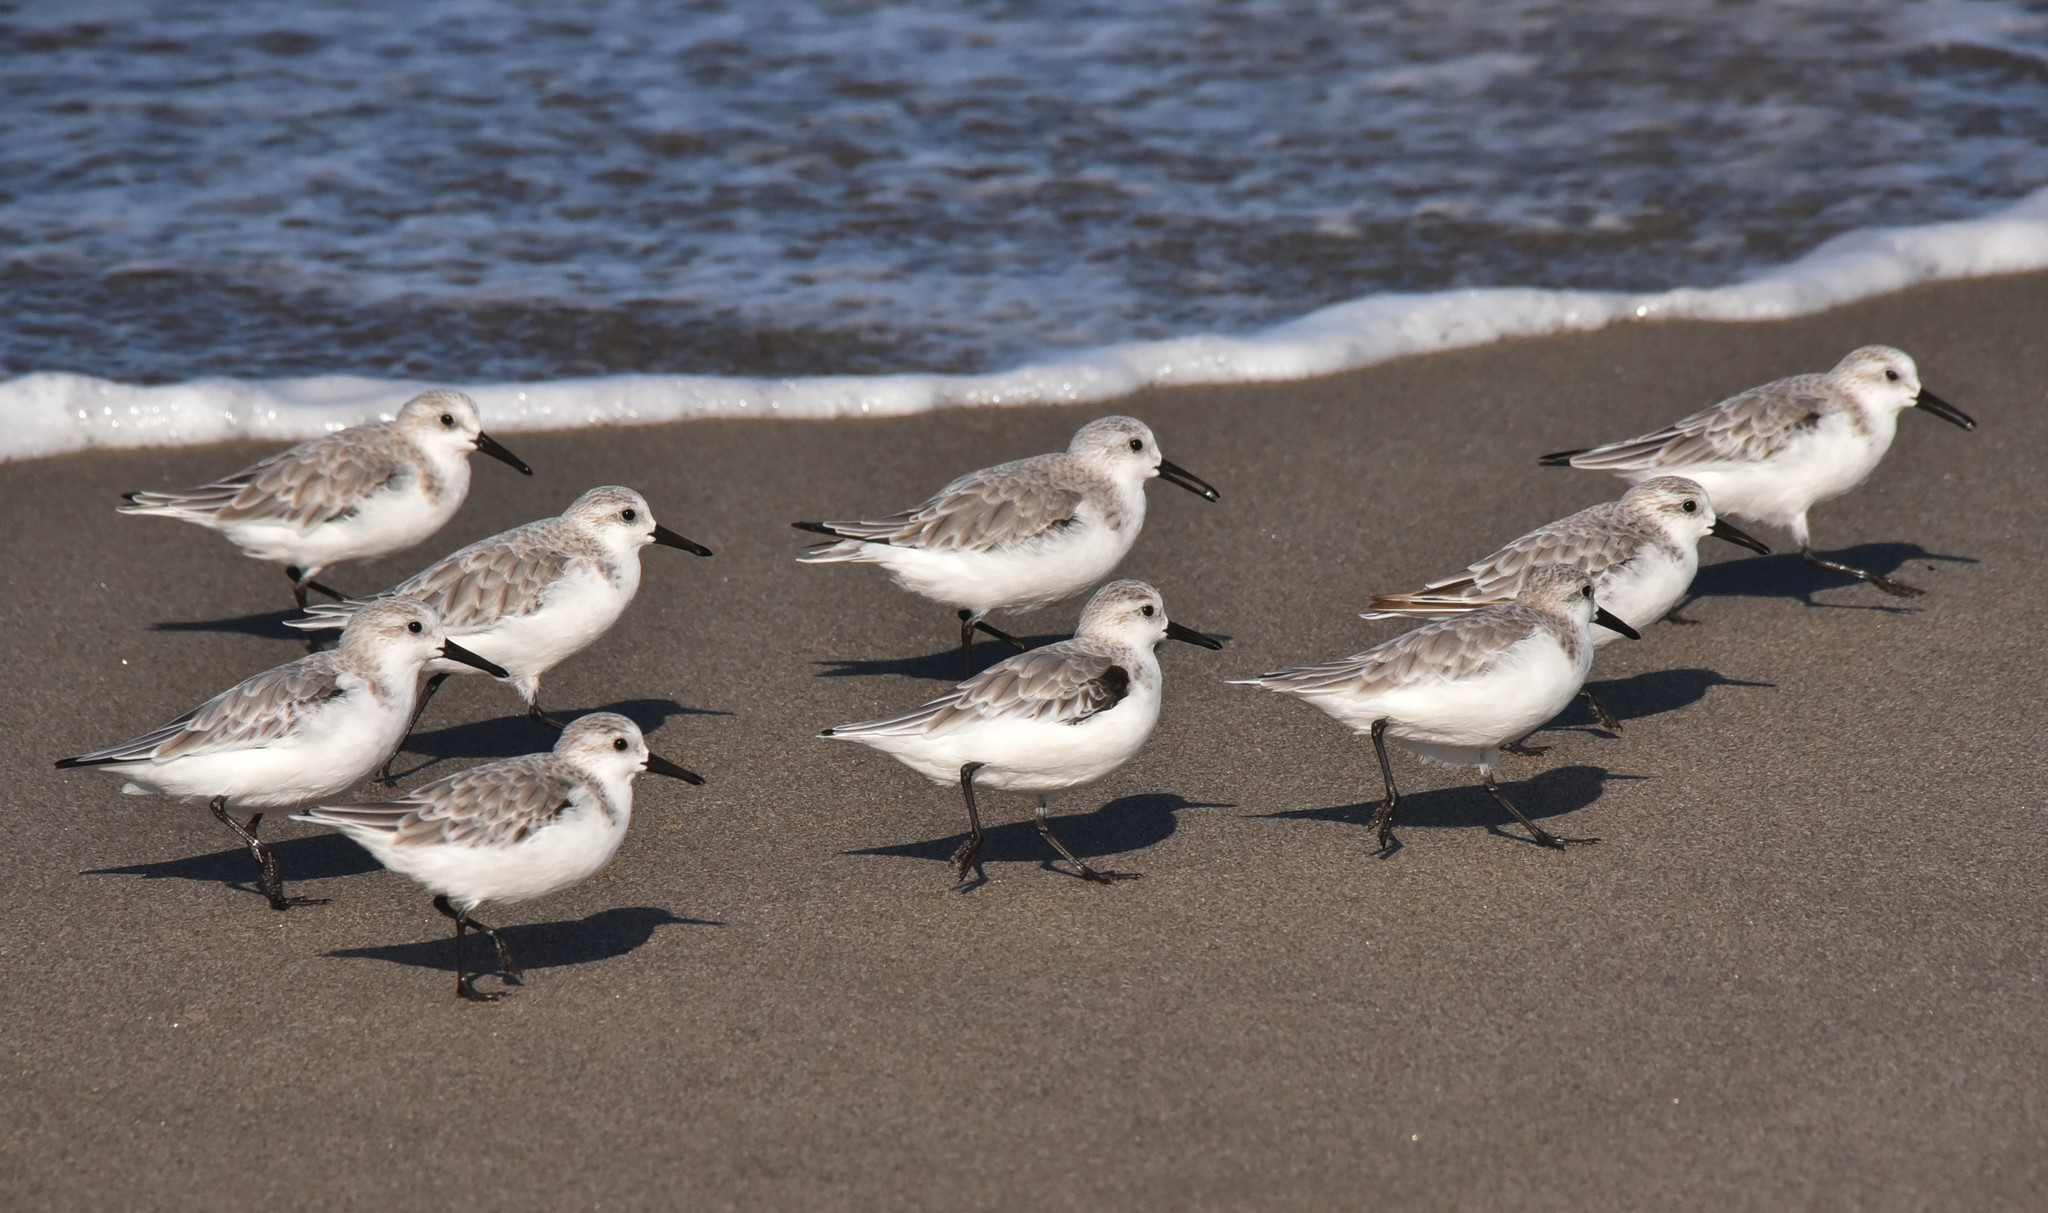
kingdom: Animalia
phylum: Chordata
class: Aves
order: Charadriiformes
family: Scolopacidae
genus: Calidris
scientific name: Calidris alba
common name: Sanderling
